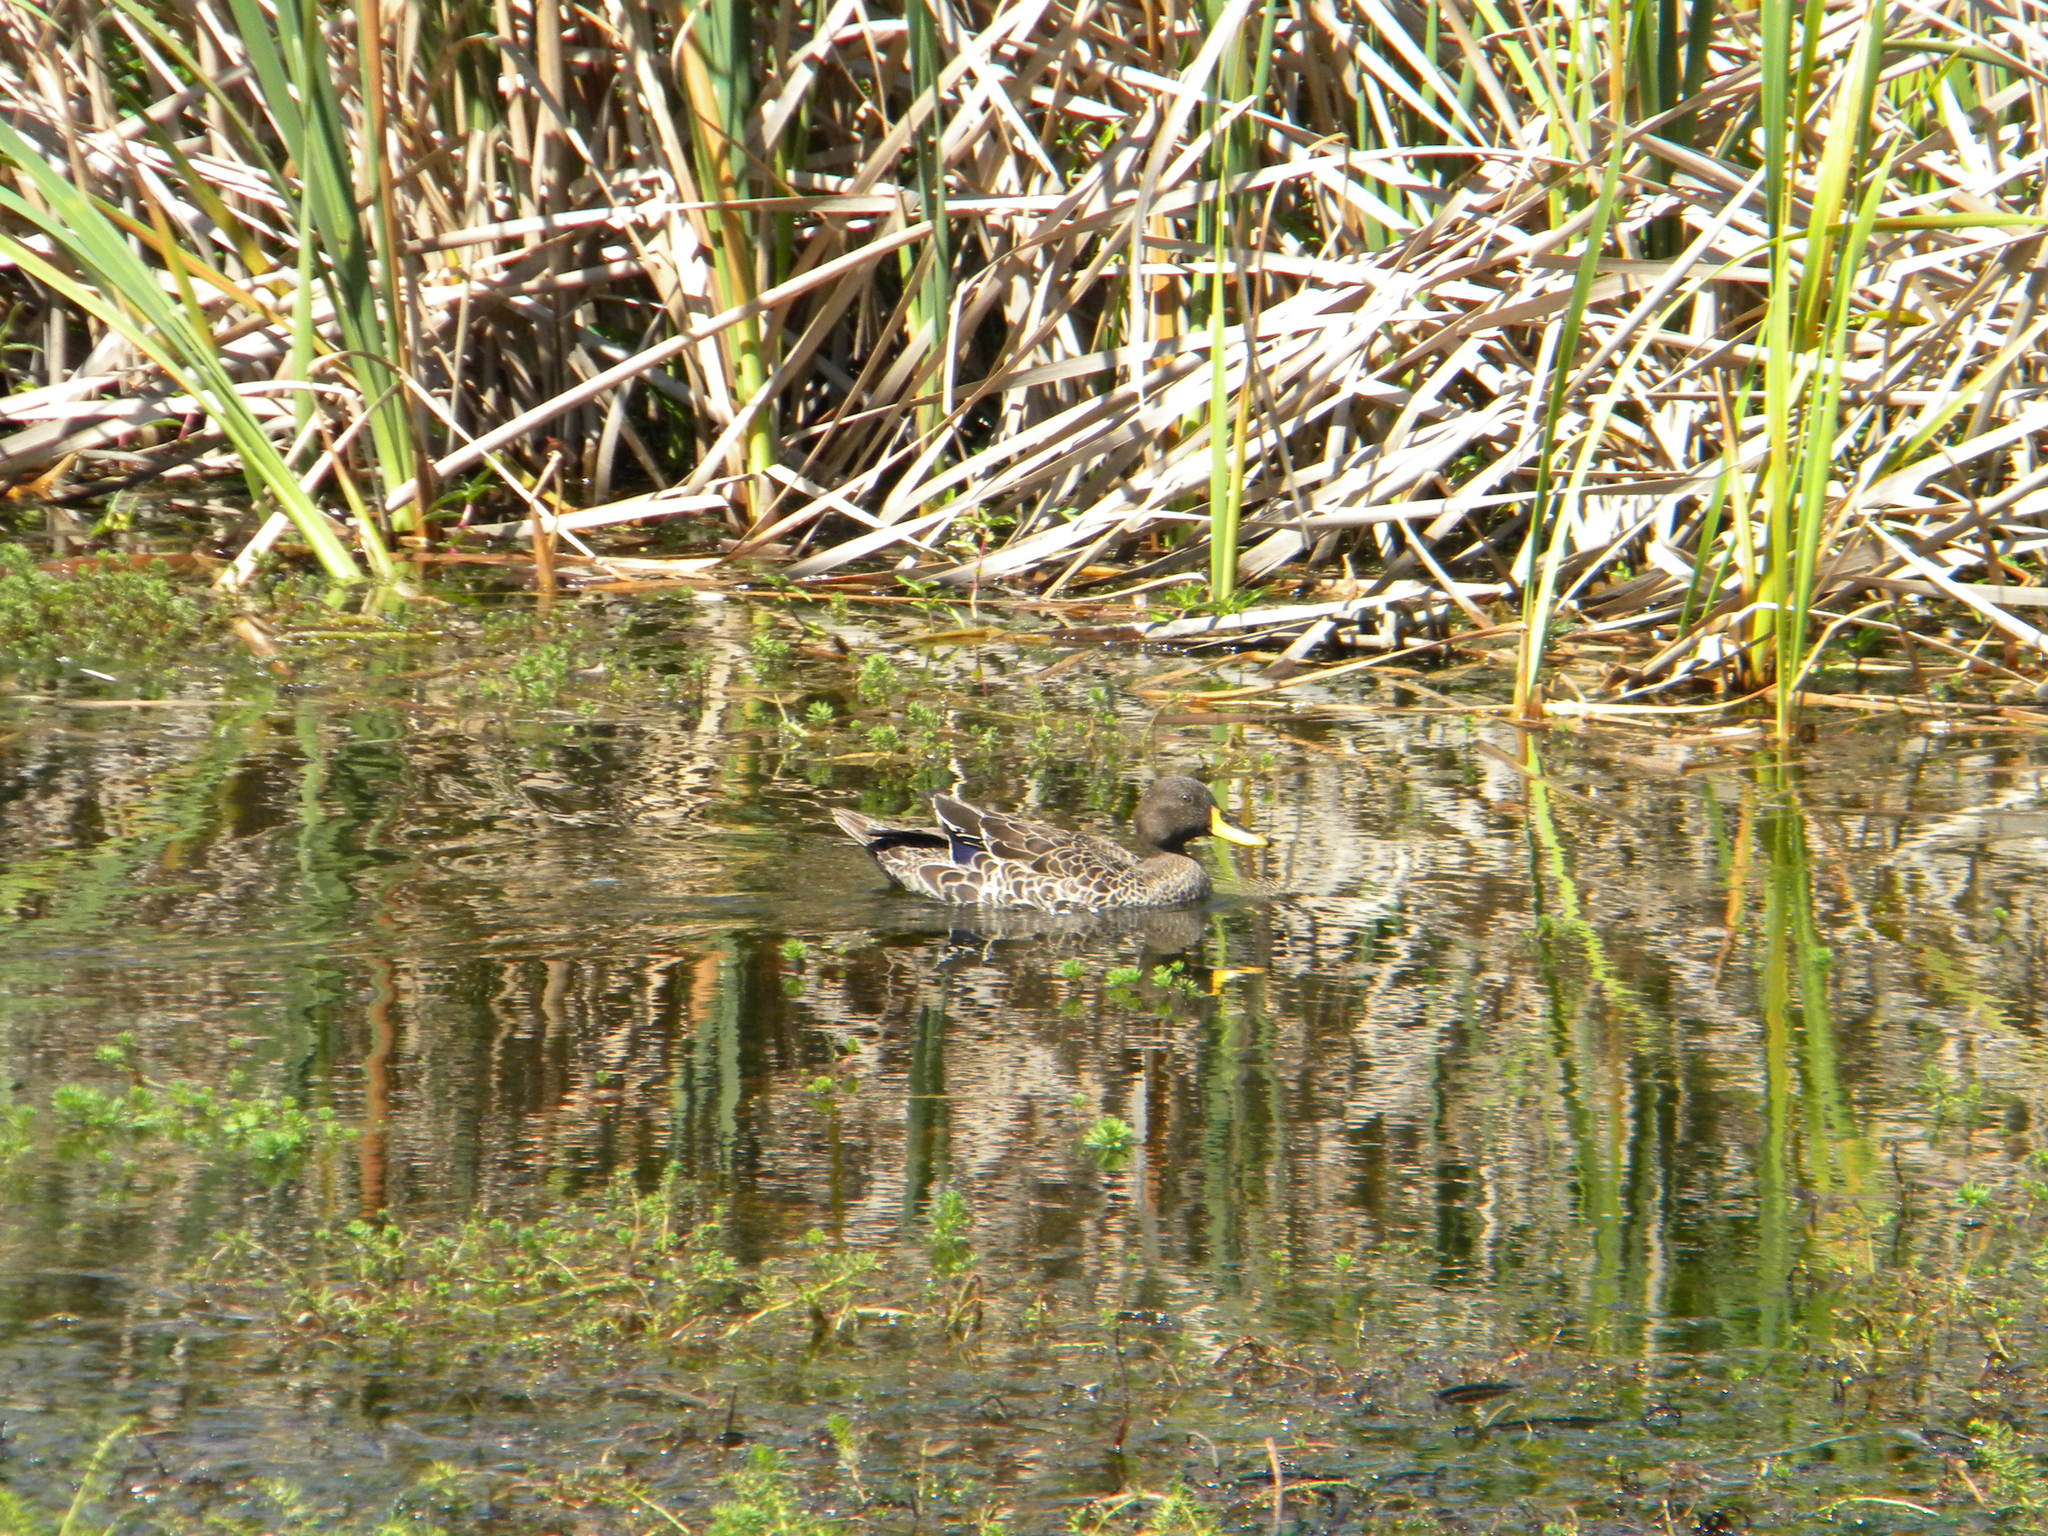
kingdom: Animalia
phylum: Chordata
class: Aves
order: Anseriformes
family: Anatidae
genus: Anas
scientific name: Anas undulata
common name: Yellow-billed duck
